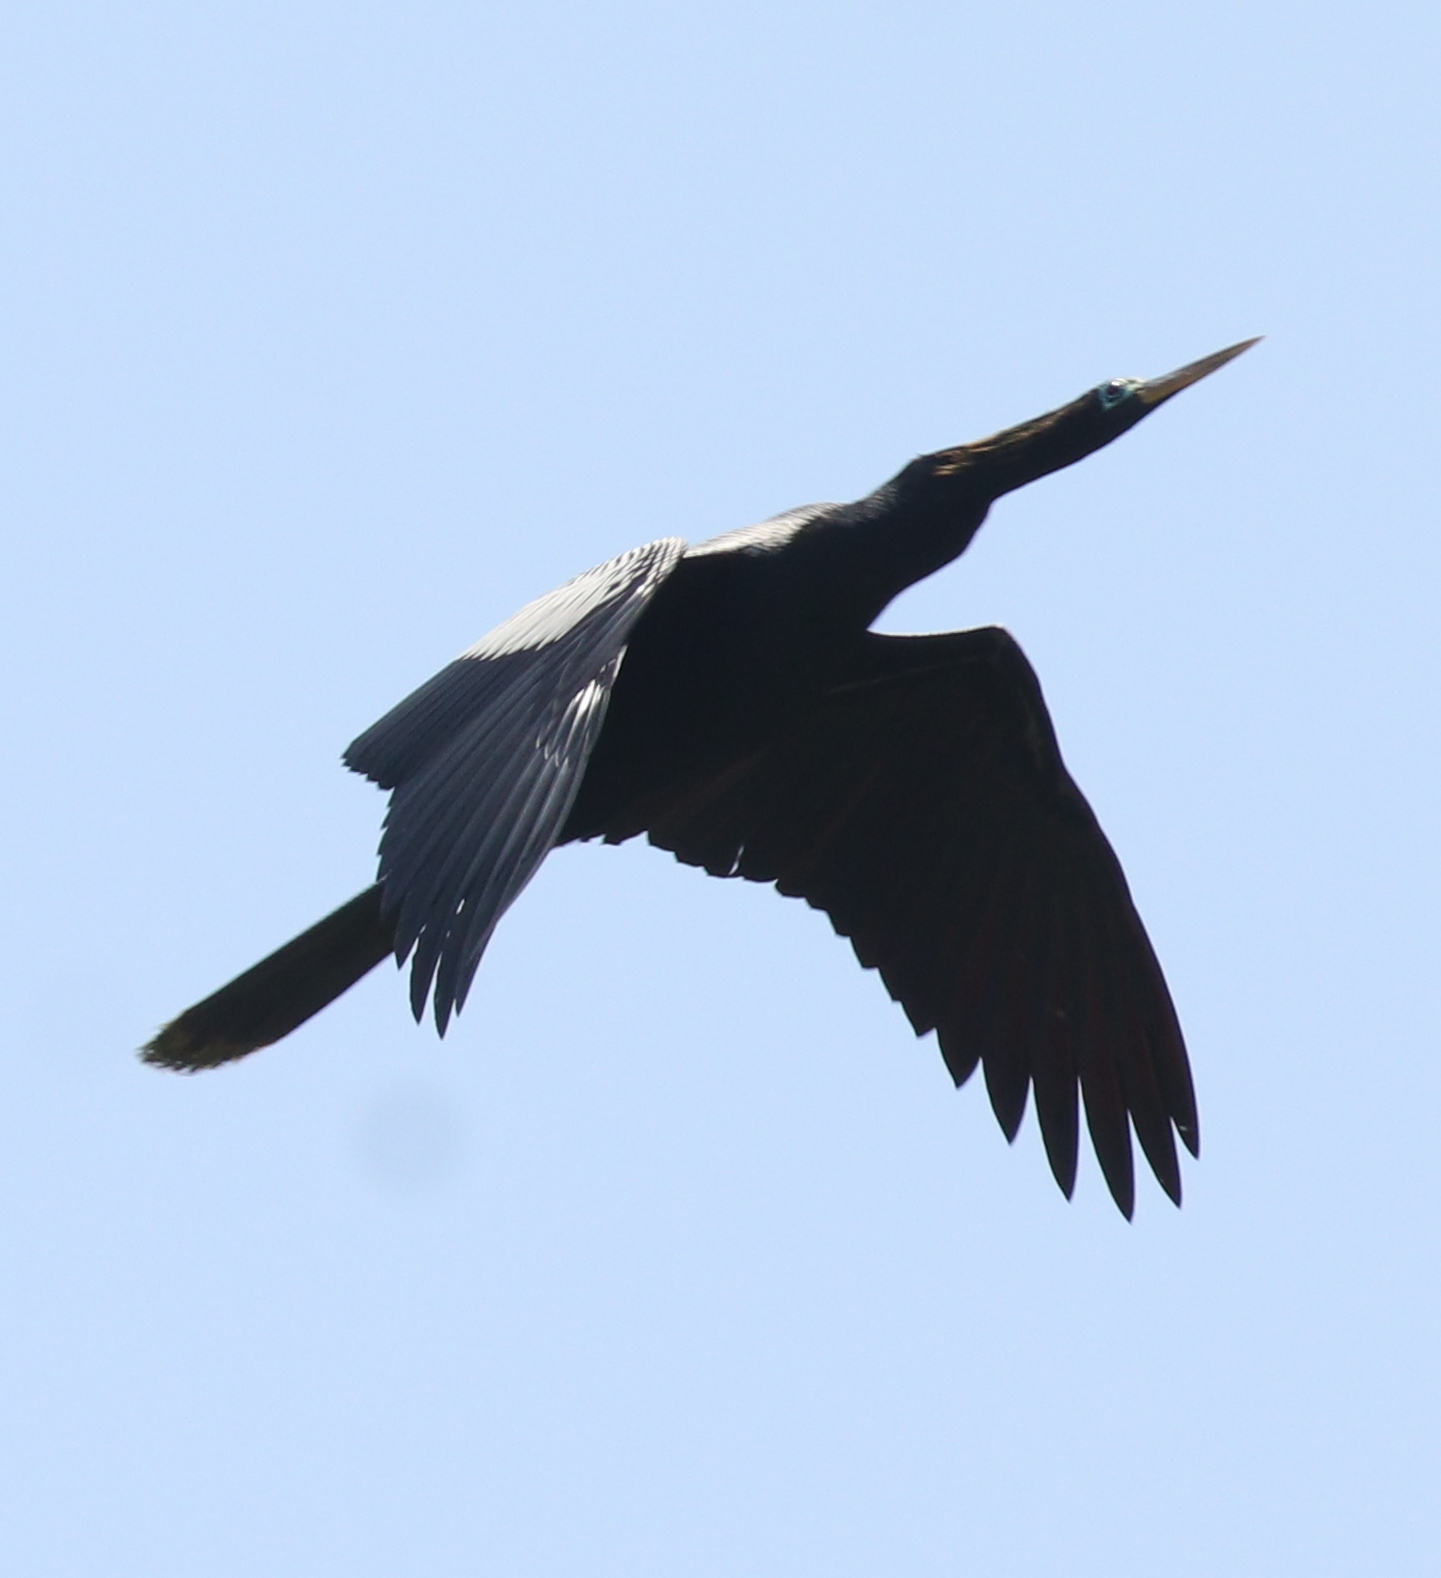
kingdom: Animalia
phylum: Chordata
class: Aves
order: Suliformes
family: Anhingidae
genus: Anhinga
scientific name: Anhinga anhinga
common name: Anhinga
